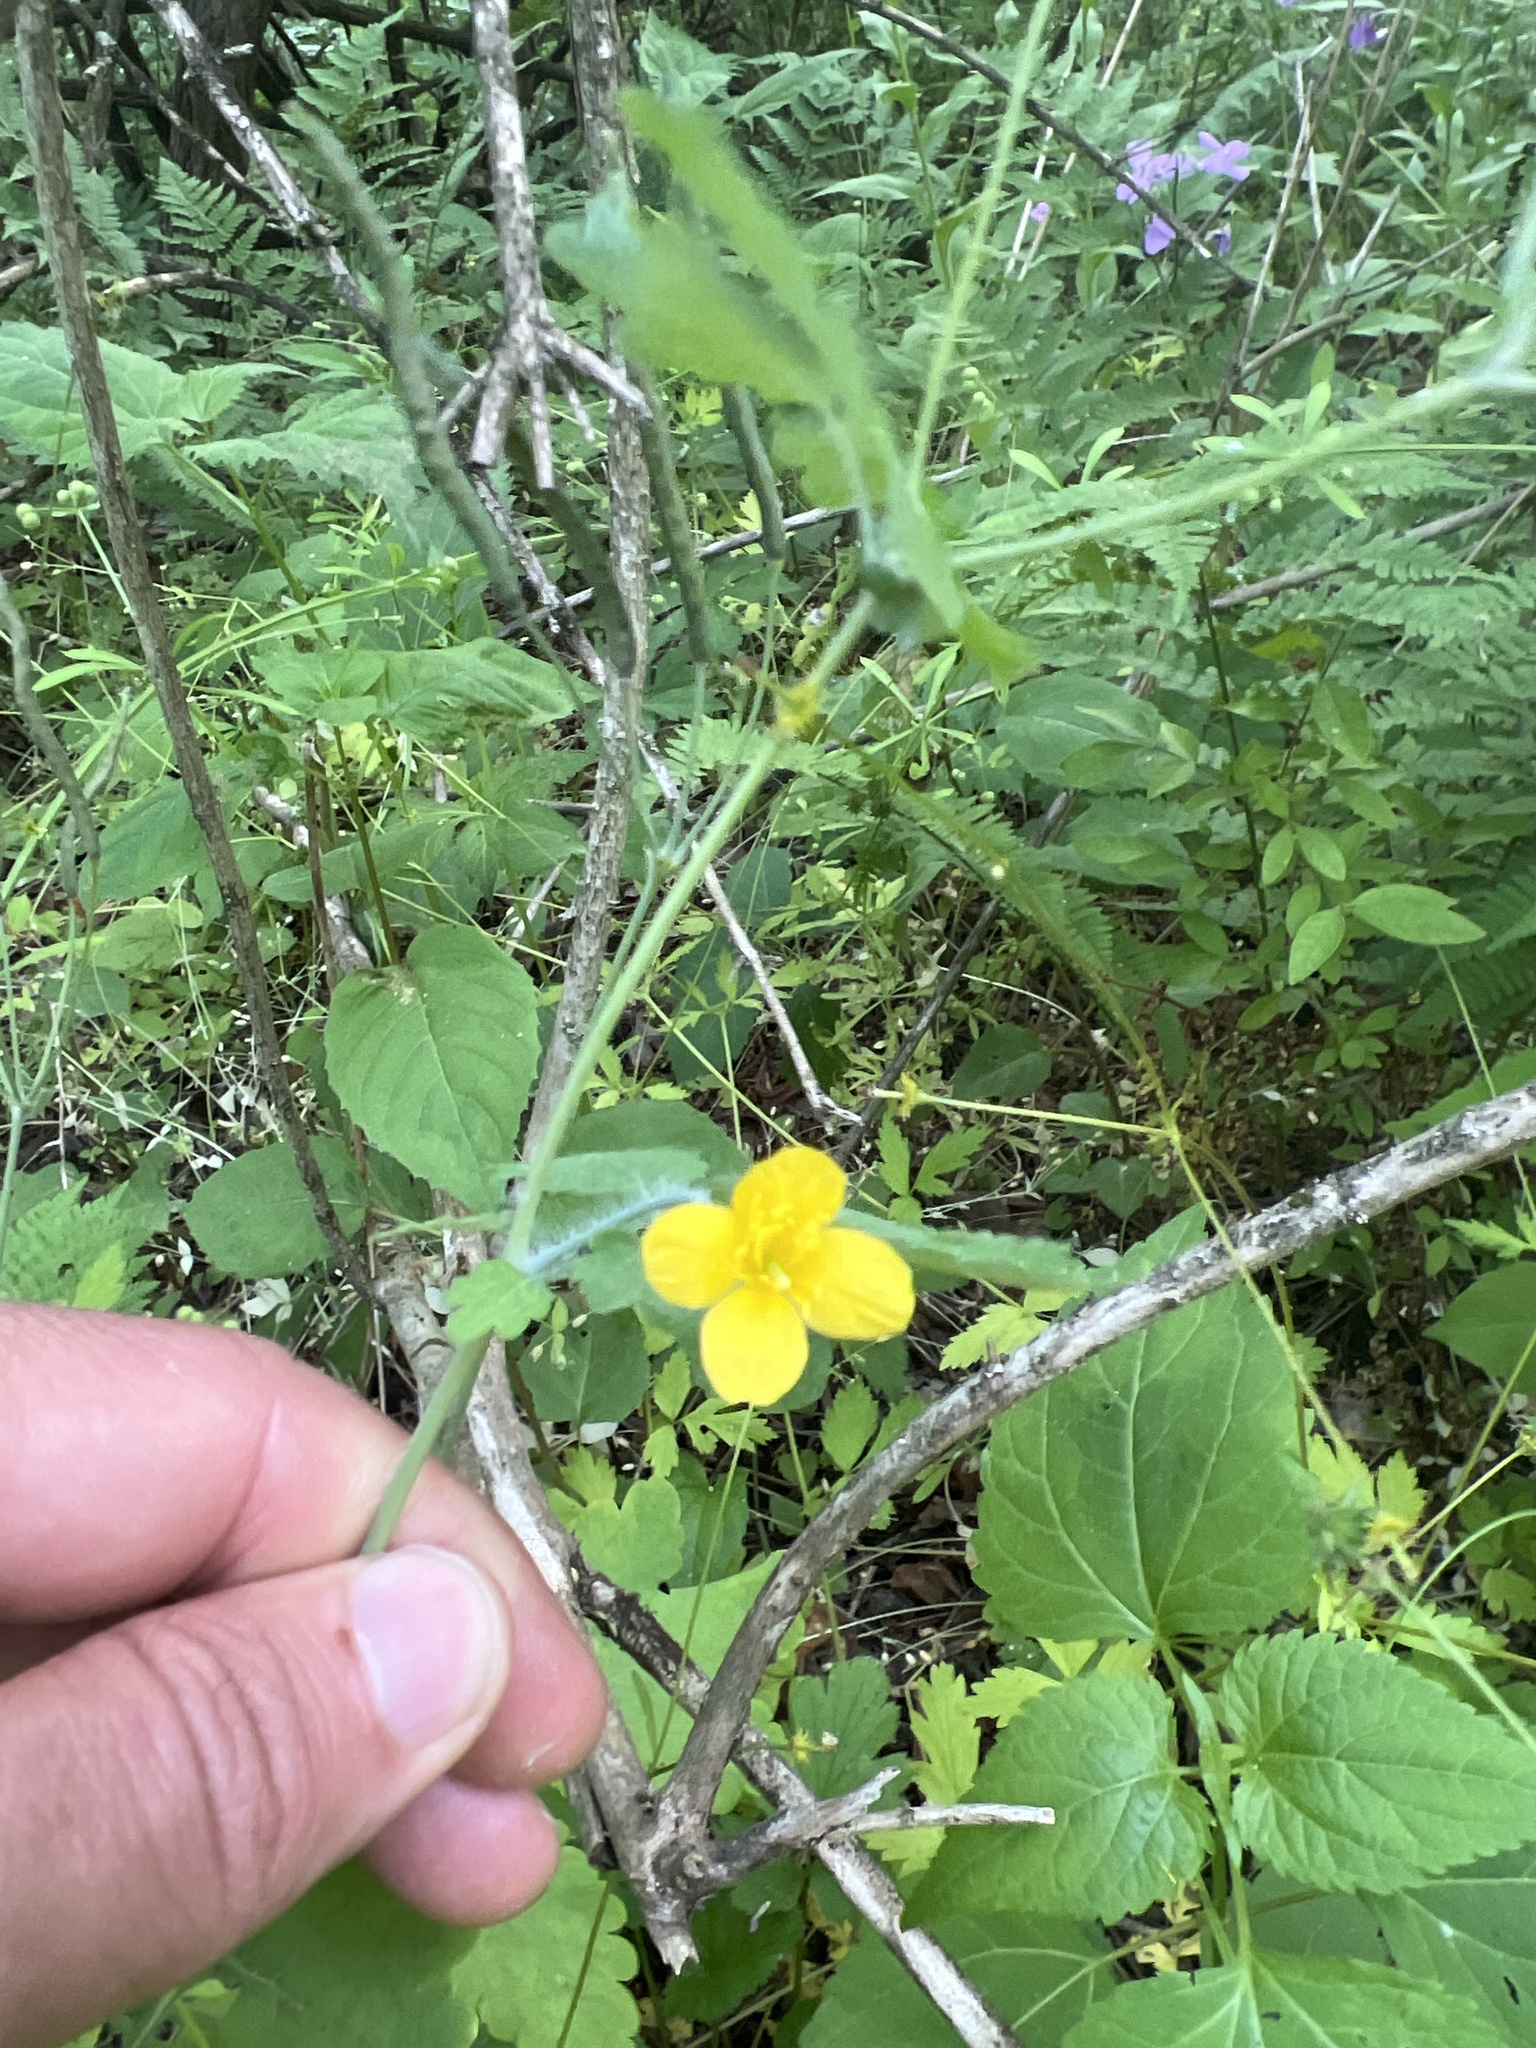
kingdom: Plantae
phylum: Tracheophyta
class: Magnoliopsida
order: Ranunculales
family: Papaveraceae
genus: Chelidonium
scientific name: Chelidonium majus
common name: Greater celandine
